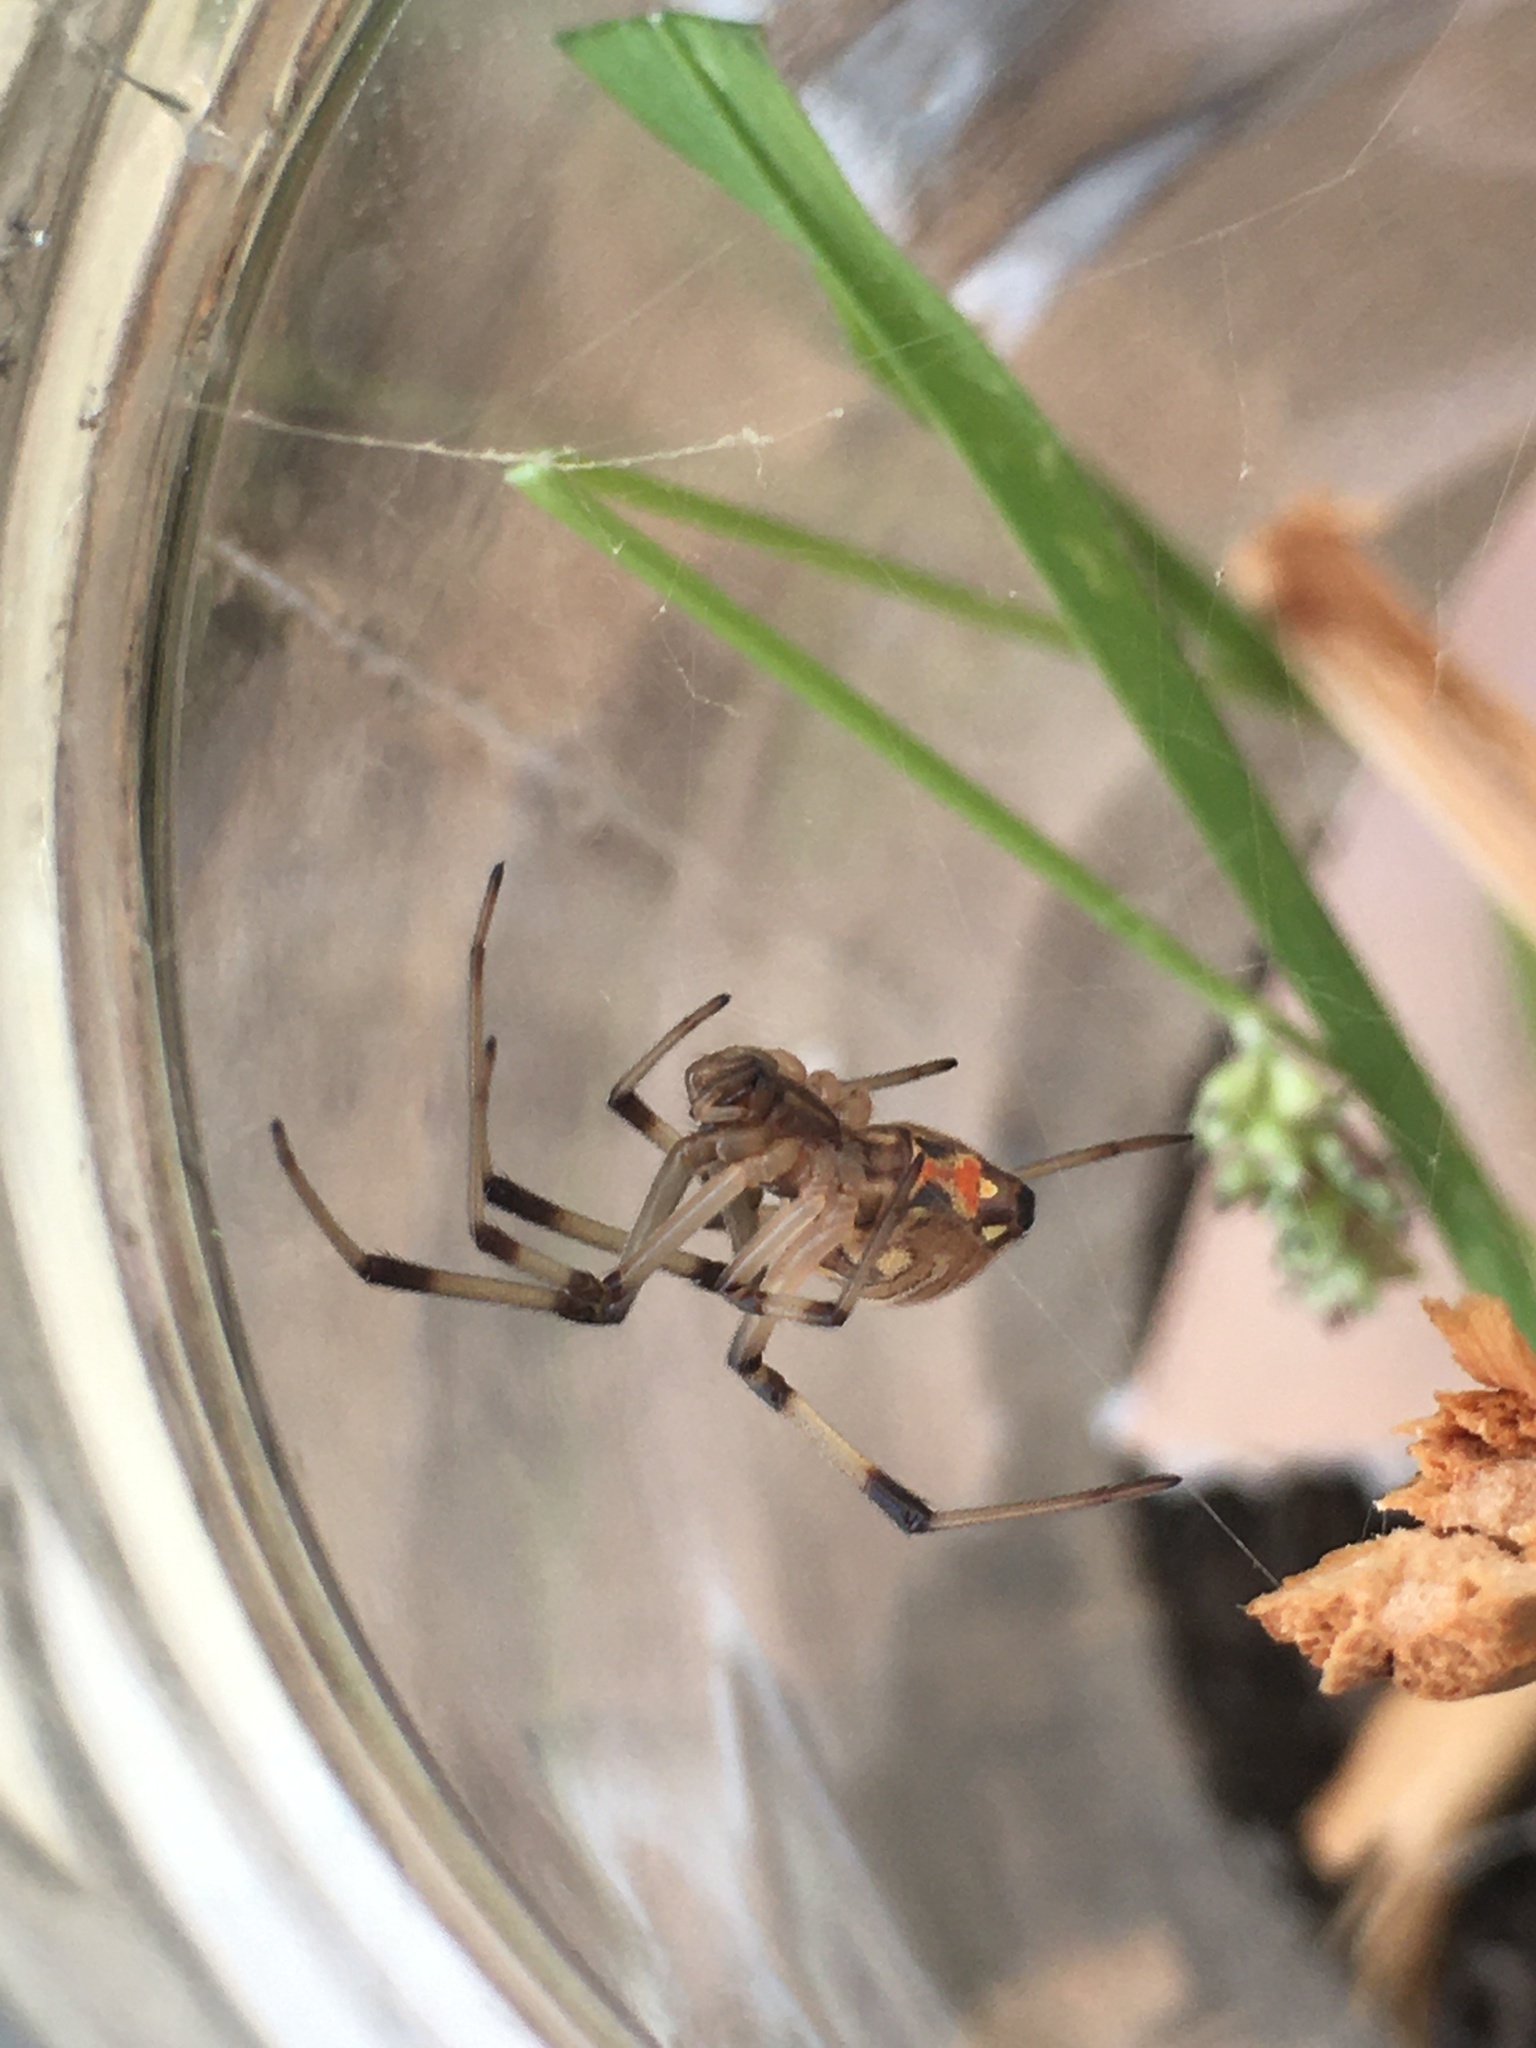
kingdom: Animalia
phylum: Arthropoda
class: Arachnida
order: Araneae
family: Theridiidae
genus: Latrodectus
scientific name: Latrodectus geometricus
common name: Brown widow spider
